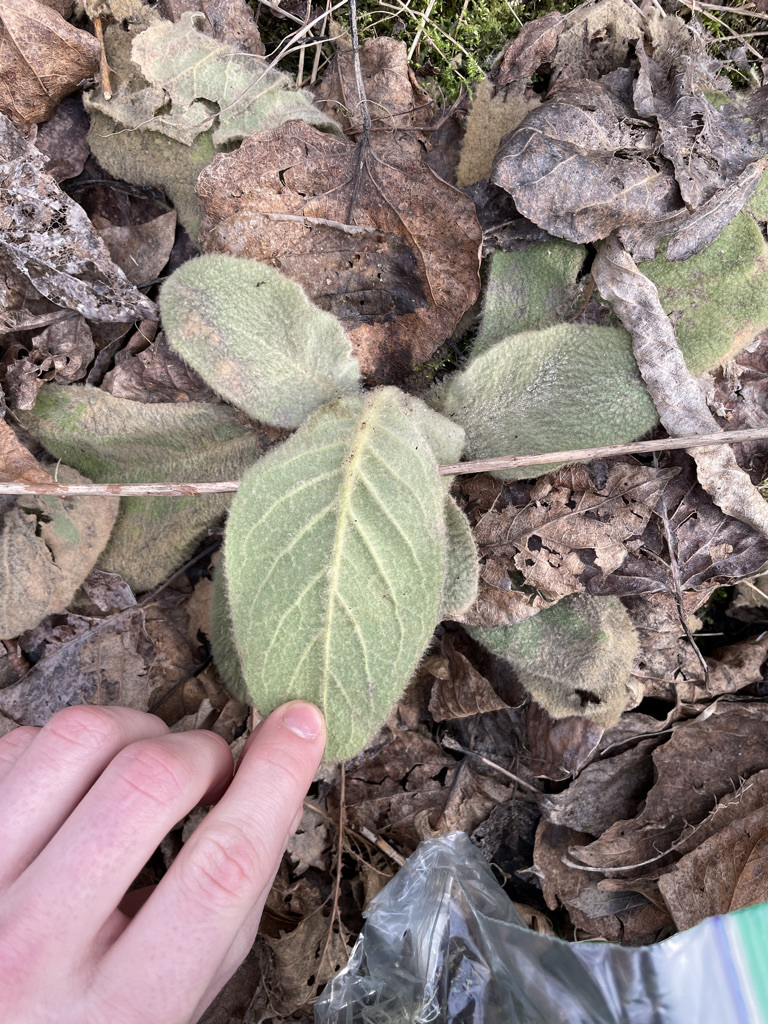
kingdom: Plantae
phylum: Tracheophyta
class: Magnoliopsida
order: Lamiales
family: Scrophulariaceae
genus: Verbascum
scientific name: Verbascum thapsus
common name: Common mullein
